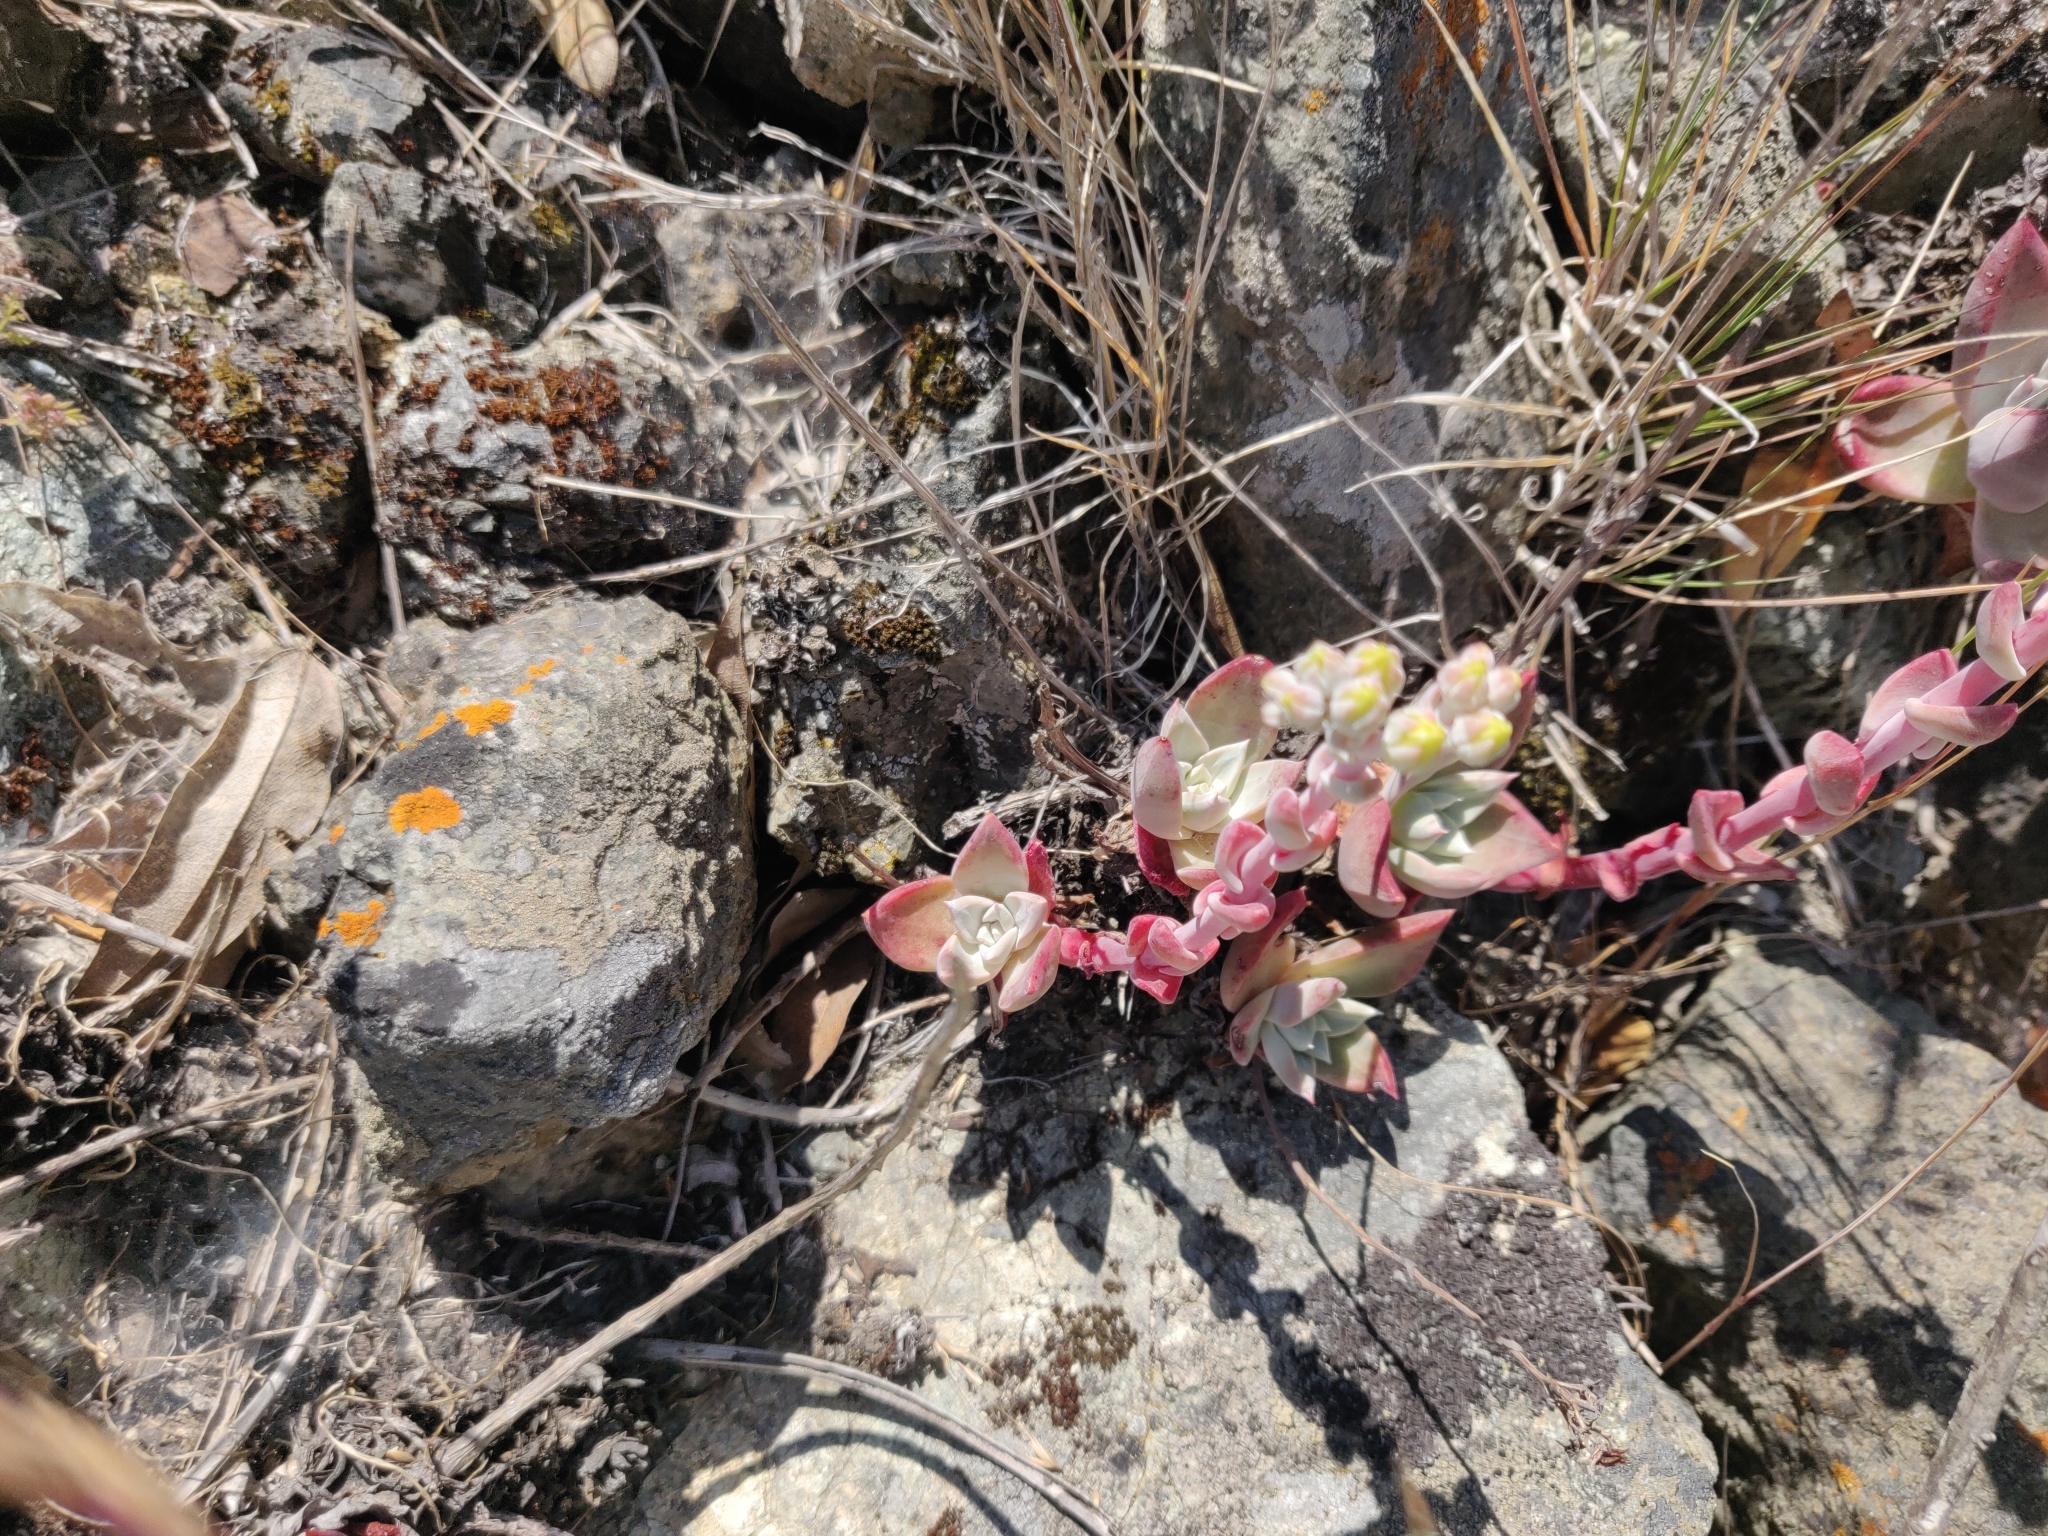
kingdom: Plantae
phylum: Tracheophyta
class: Magnoliopsida
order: Saxifragales
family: Crassulaceae
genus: Dudleya
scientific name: Dudleya farinosa
